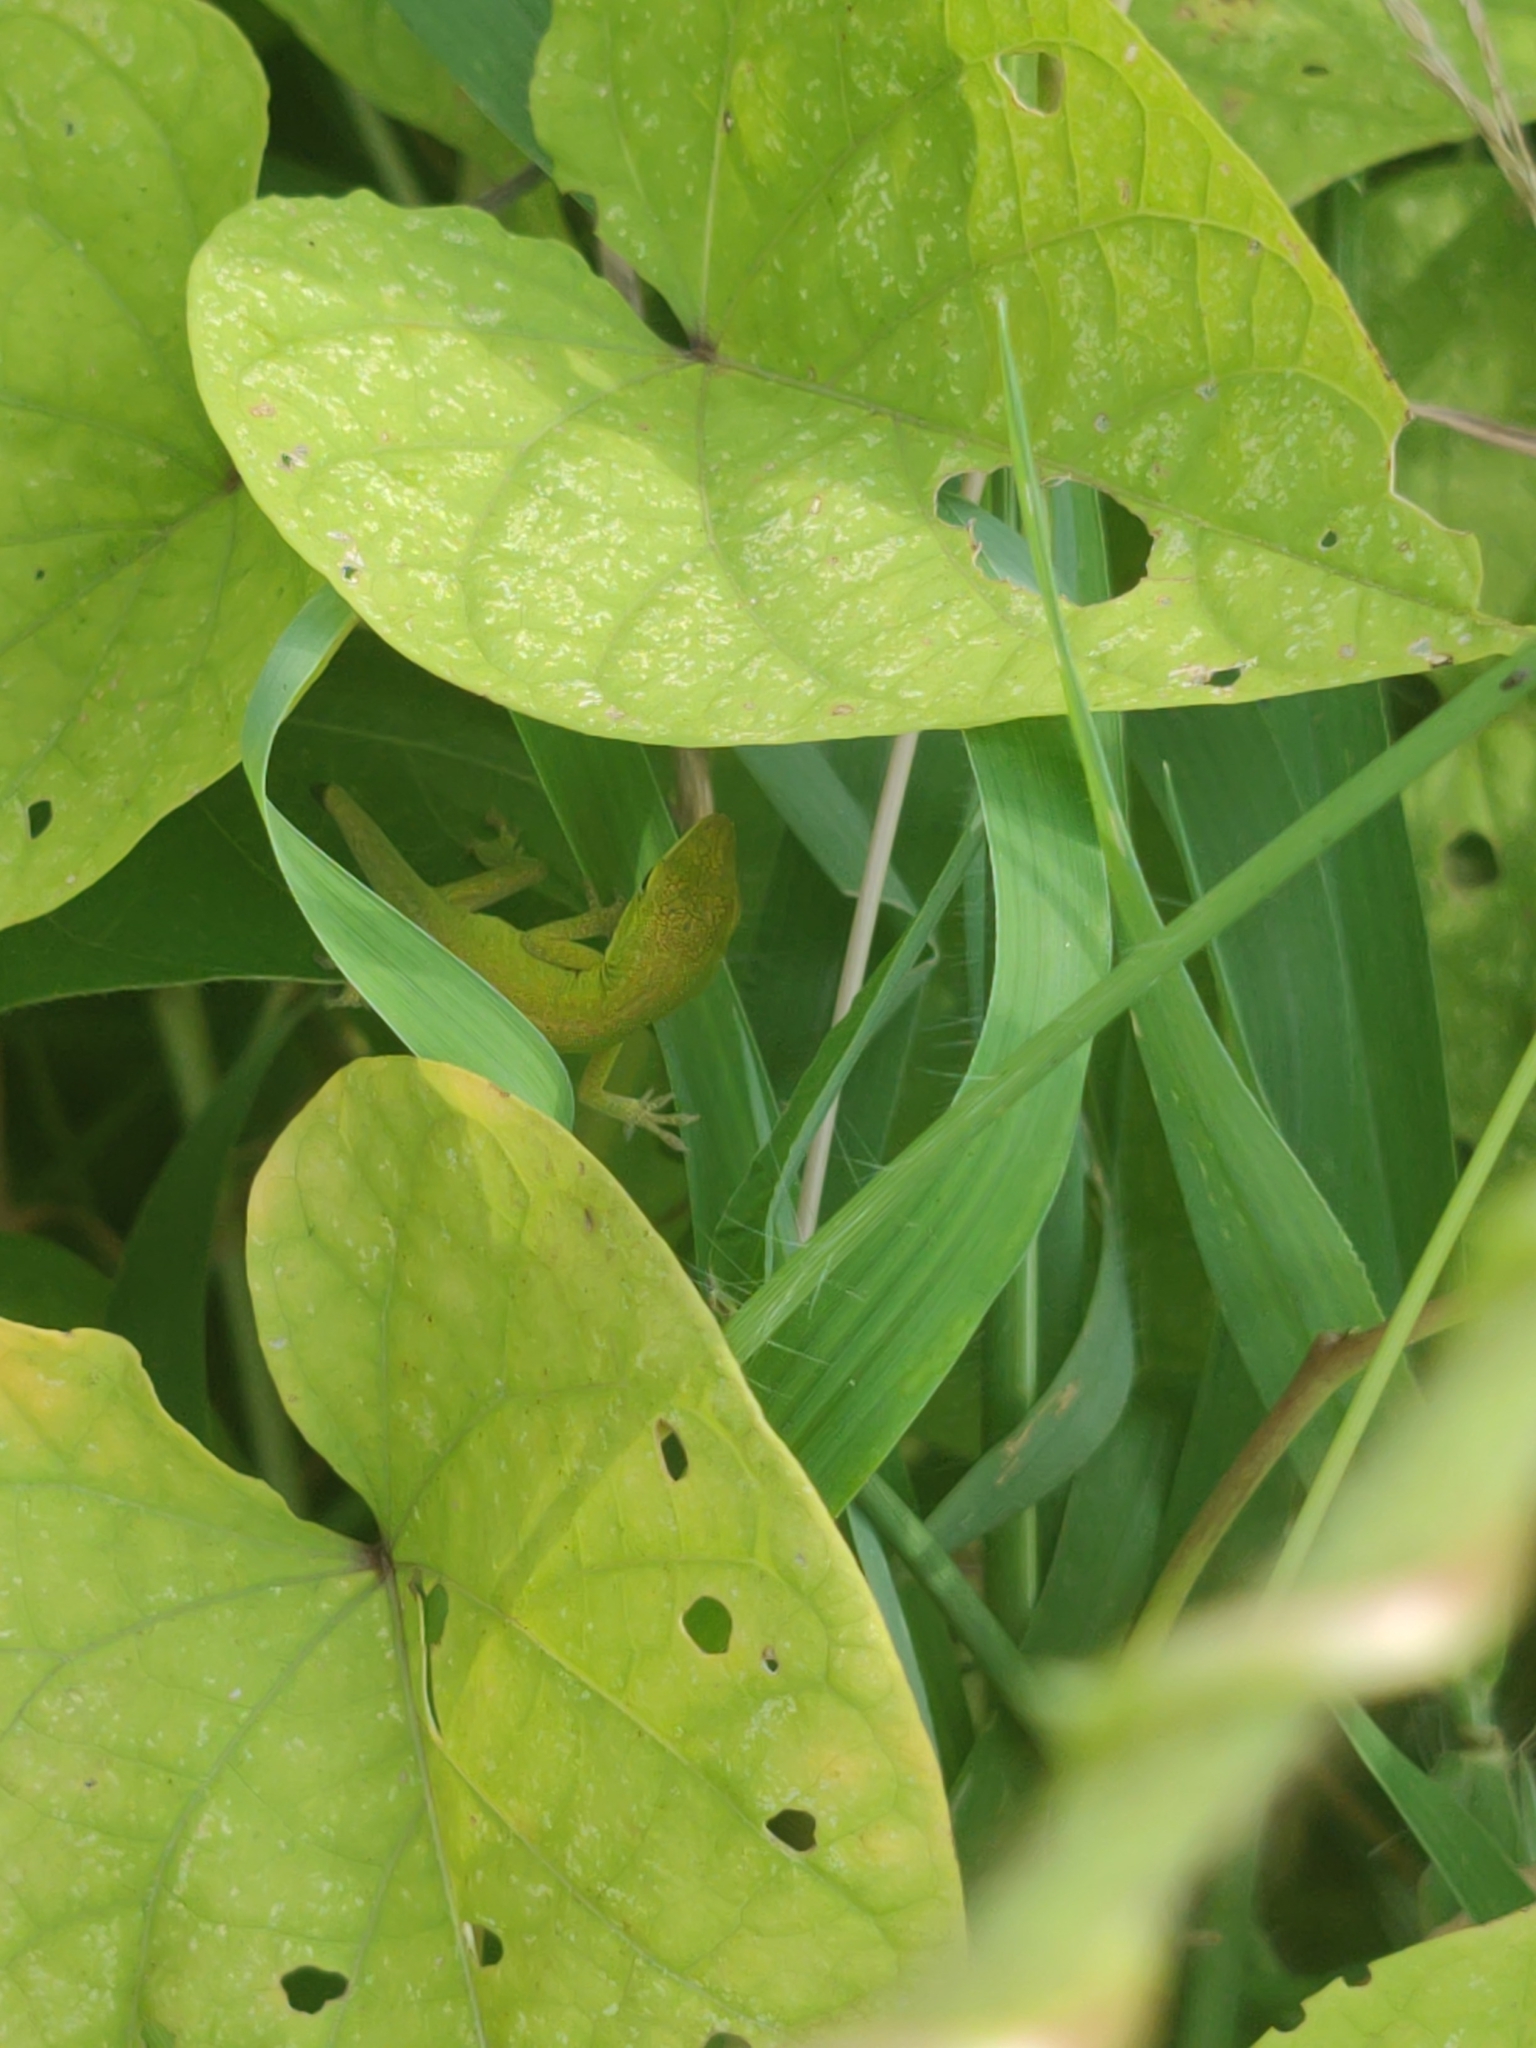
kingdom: Animalia
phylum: Chordata
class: Squamata
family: Dactyloidae
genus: Anolis
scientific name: Anolis carolinensis
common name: Green anole
